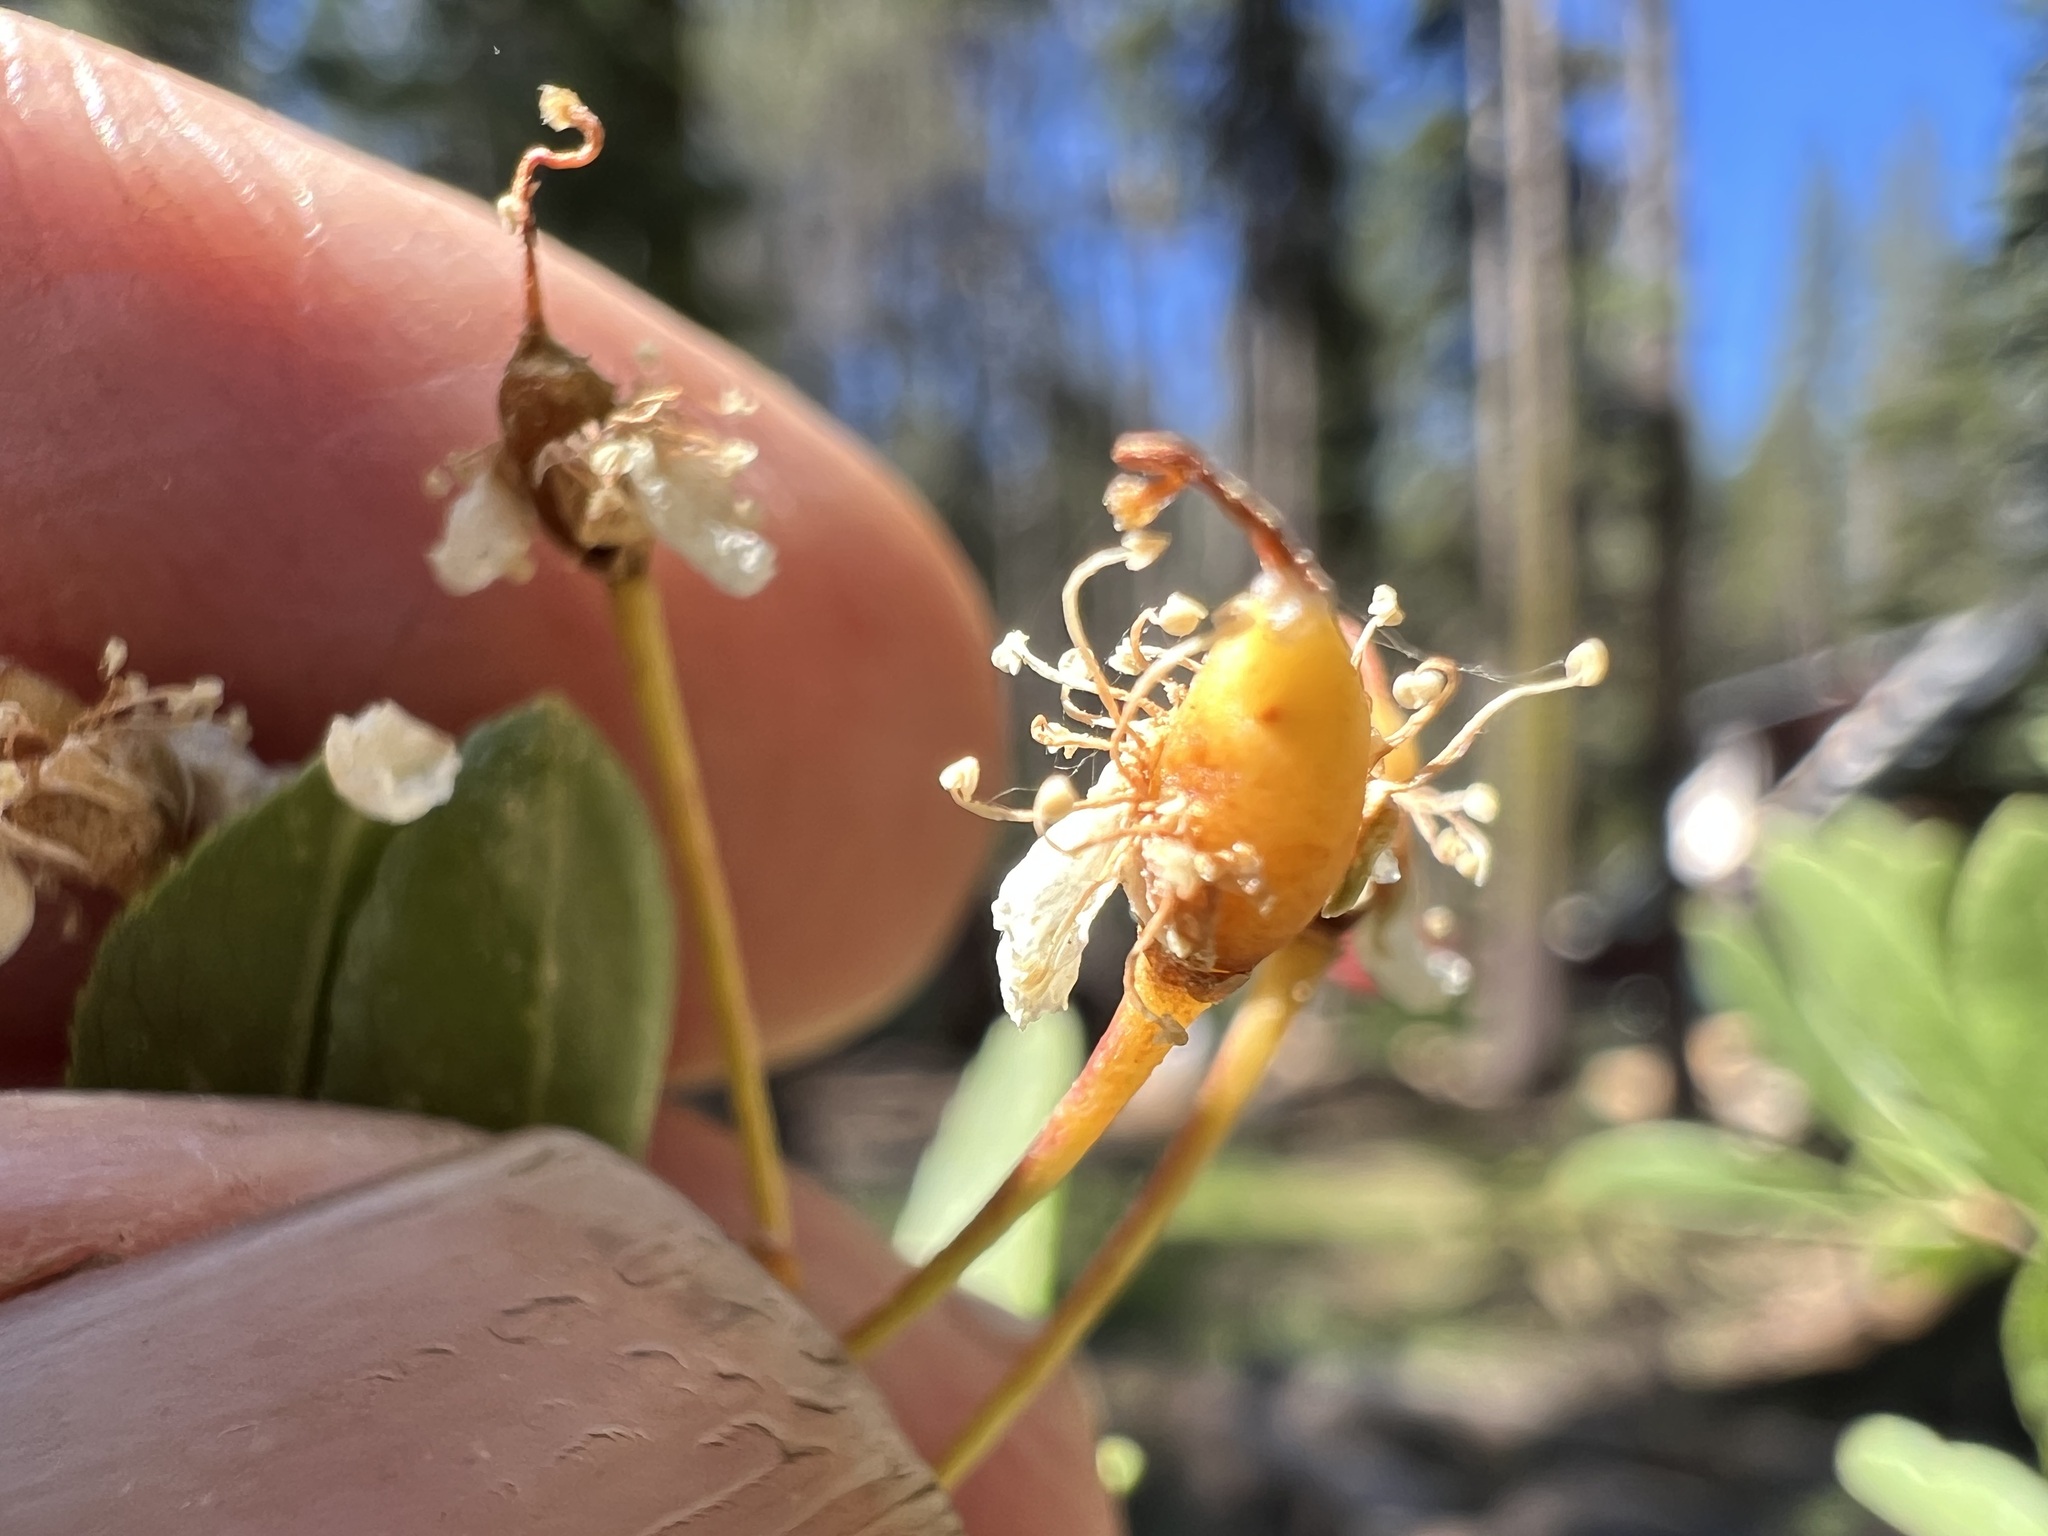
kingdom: Plantae
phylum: Tracheophyta
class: Magnoliopsida
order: Rosales
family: Rosaceae
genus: Prunus
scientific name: Prunus emarginata
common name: Bitter cherry
